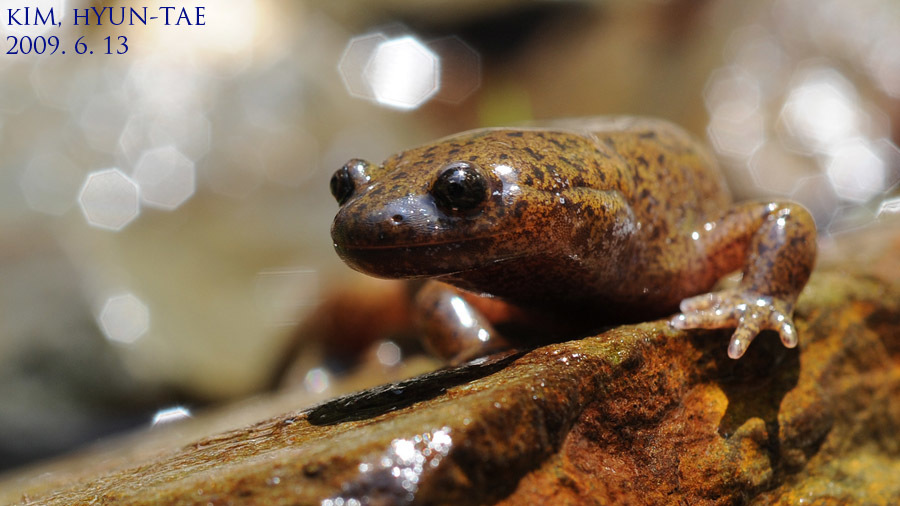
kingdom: Animalia
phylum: Chordata
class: Amphibia
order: Caudata
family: Hynobiidae
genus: Hynobius
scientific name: Hynobius leechii
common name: Gensan salamander
